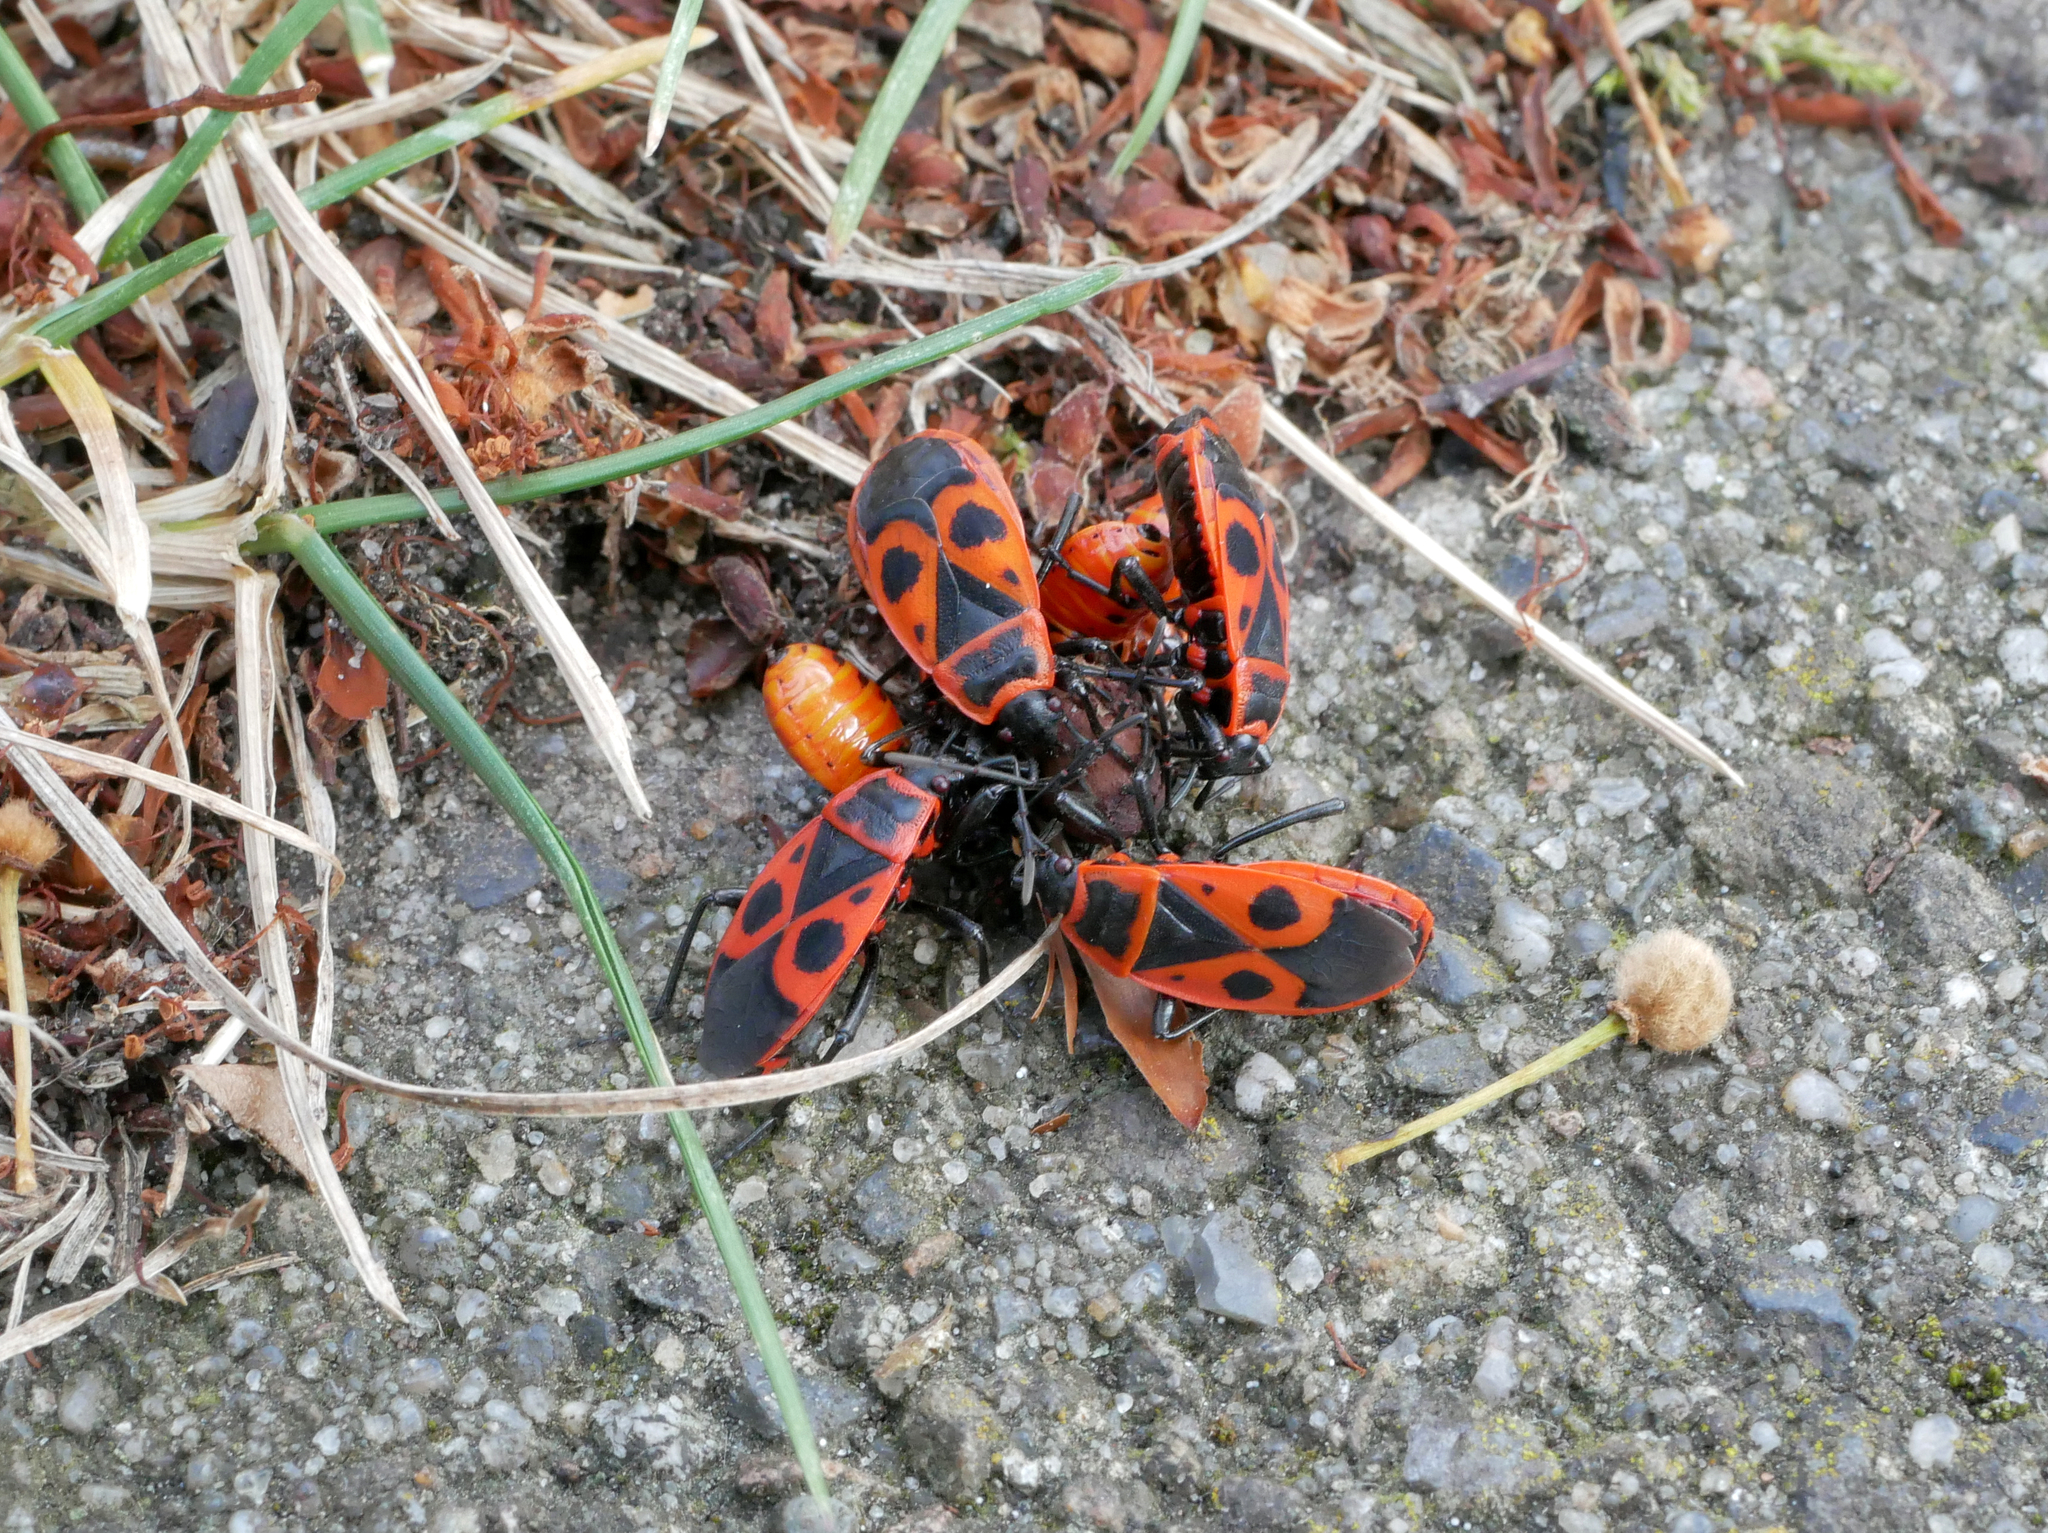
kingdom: Animalia
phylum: Arthropoda
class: Insecta
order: Hemiptera
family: Pyrrhocoridae
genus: Pyrrhocoris
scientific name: Pyrrhocoris apterus
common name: Firebug
